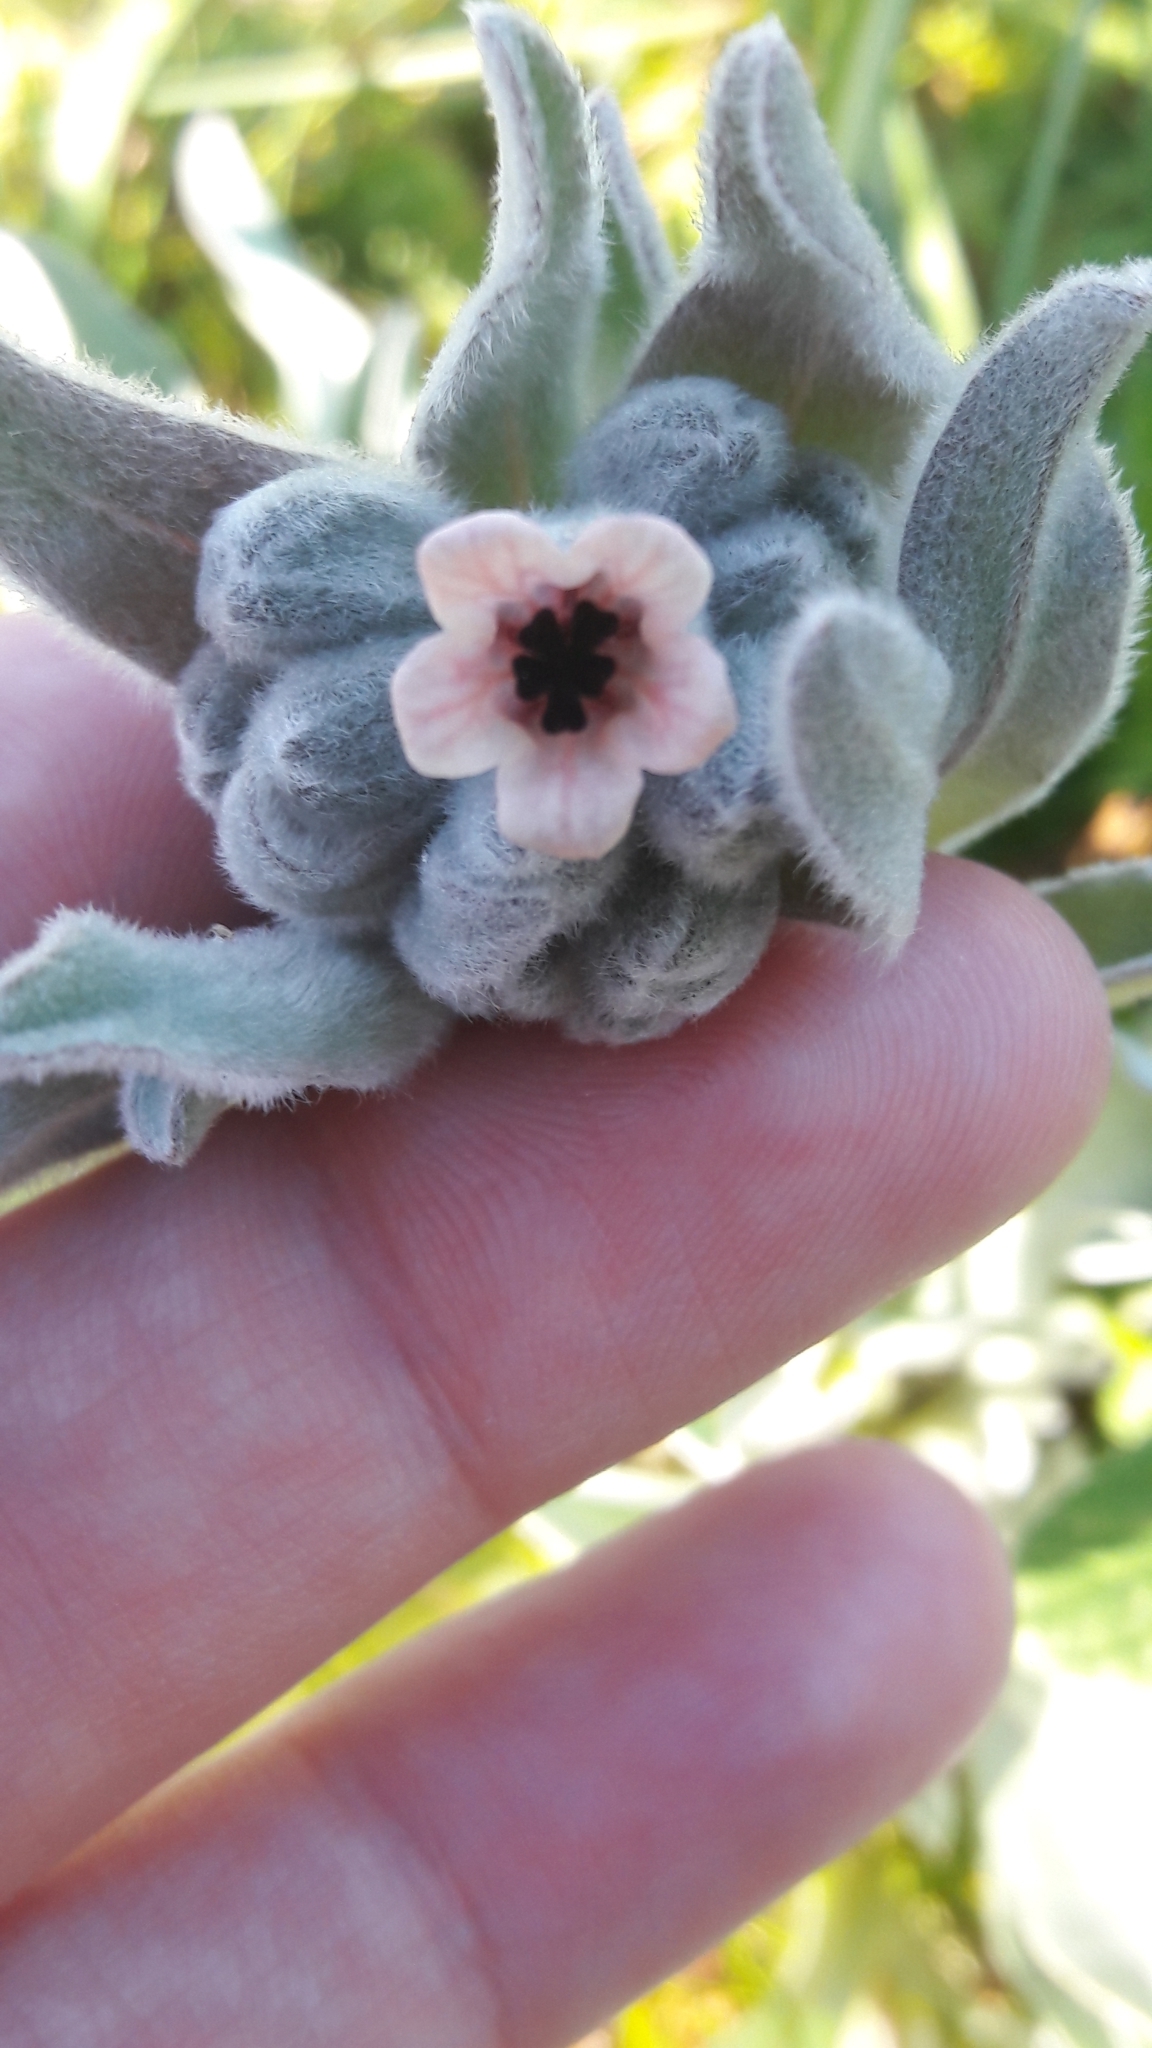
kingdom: Plantae
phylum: Tracheophyta
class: Magnoliopsida
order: Boraginales
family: Boraginaceae
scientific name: Boraginaceae
